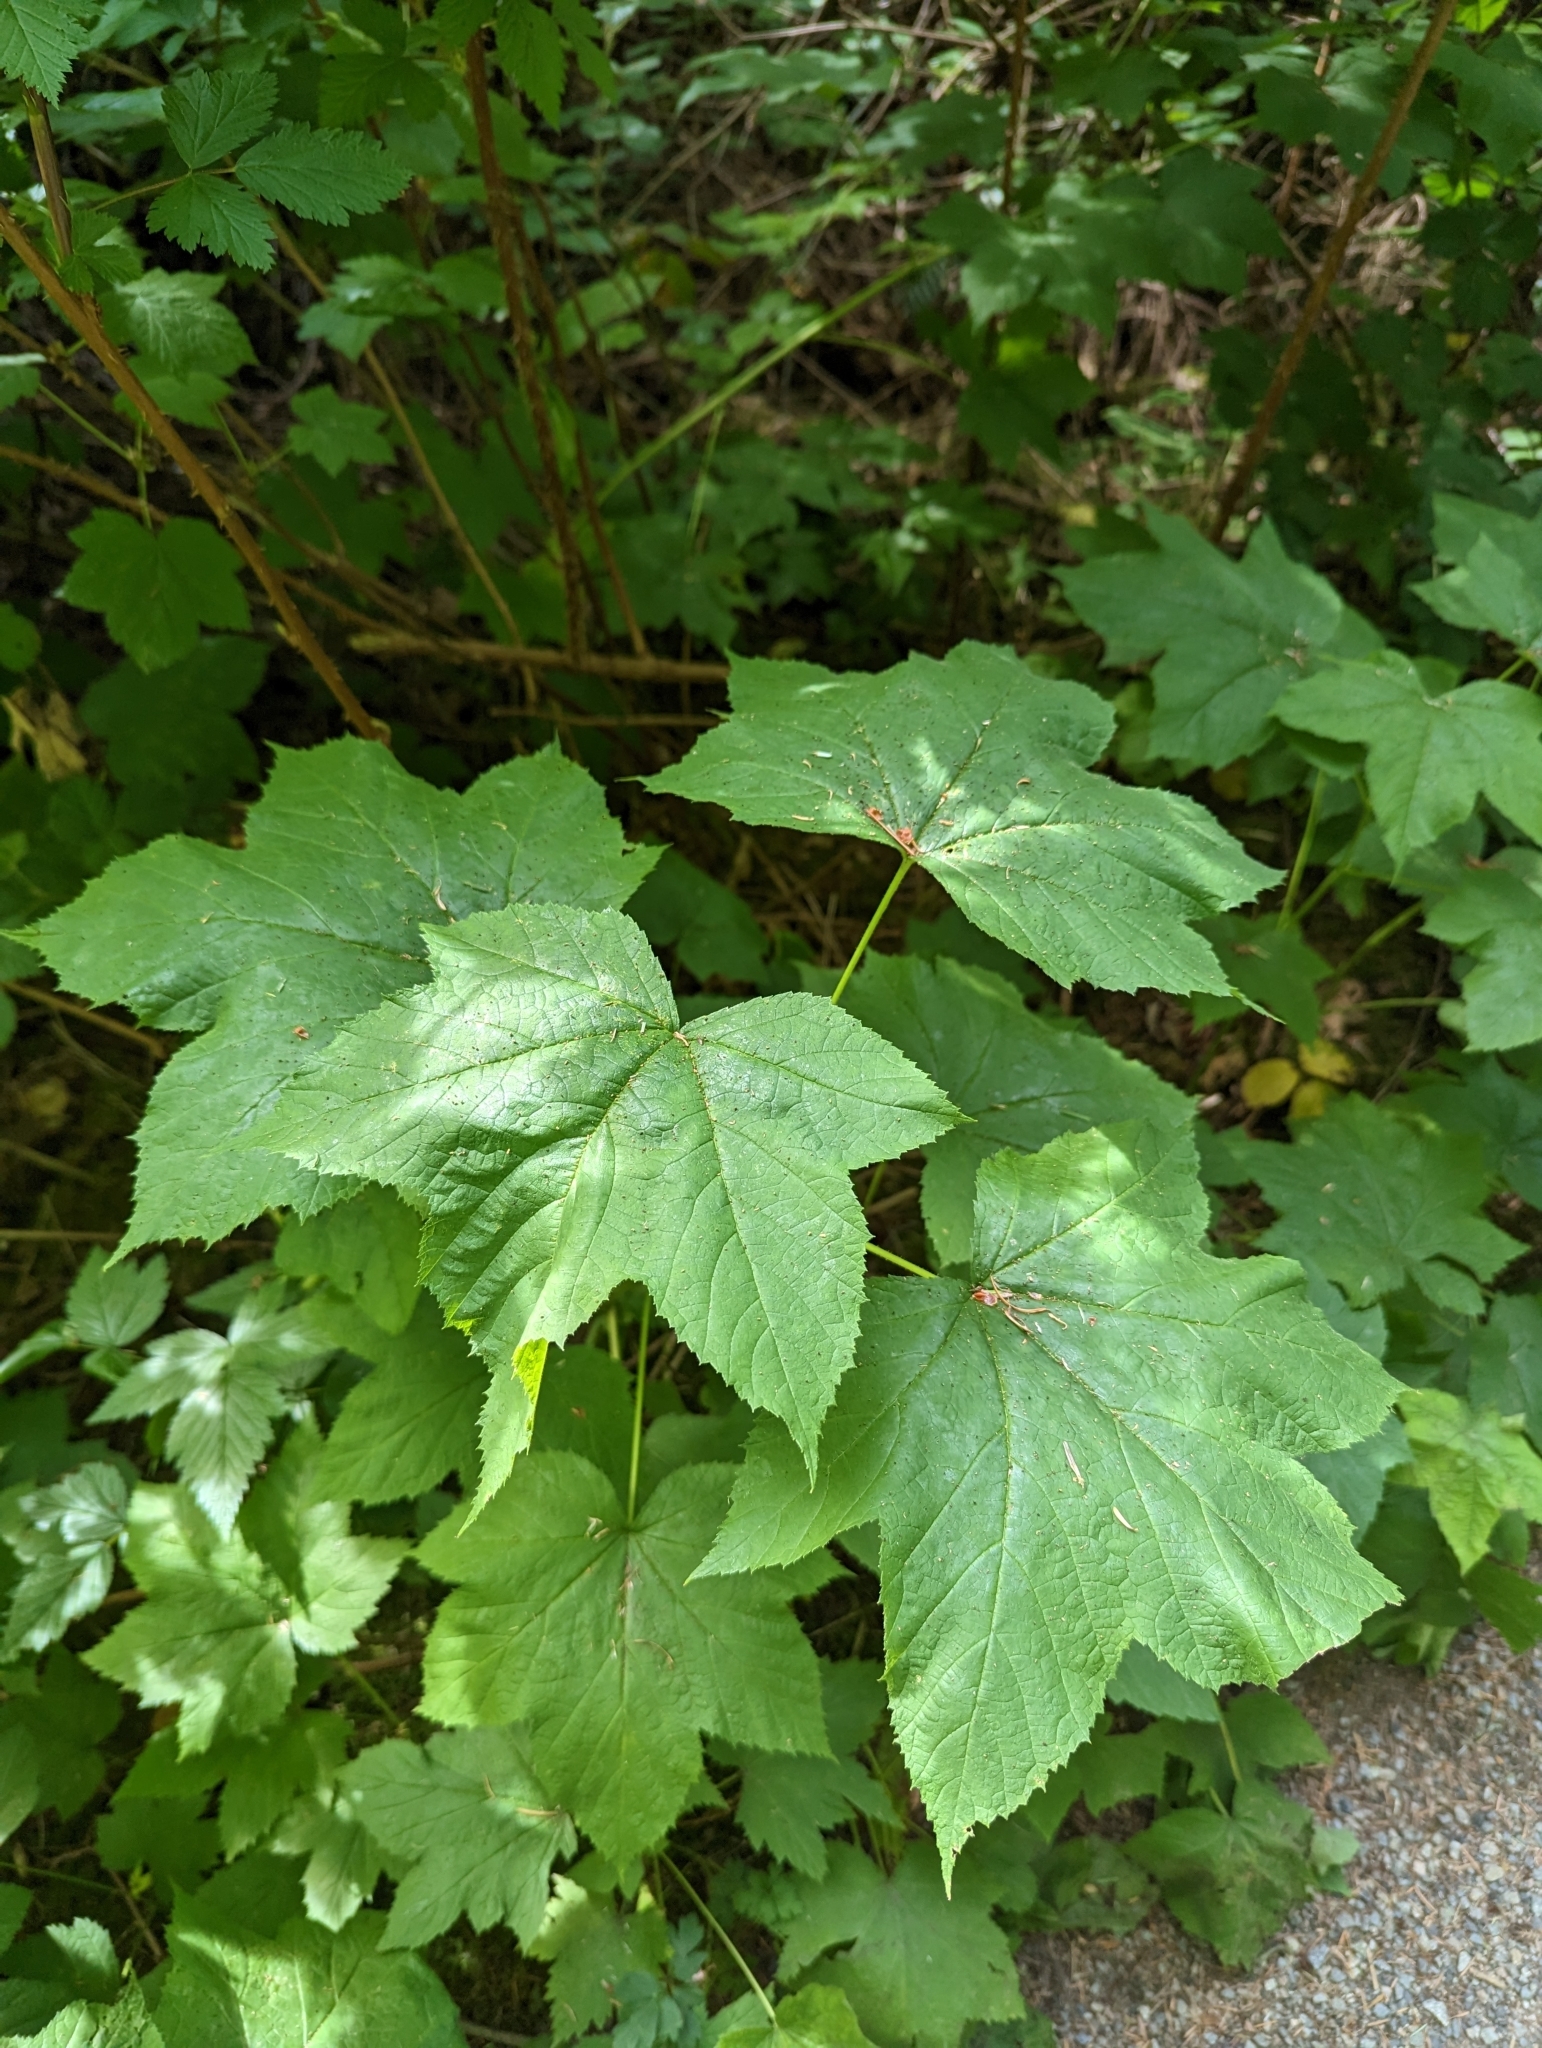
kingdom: Plantae
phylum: Tracheophyta
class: Magnoliopsida
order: Rosales
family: Rosaceae
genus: Rubus
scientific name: Rubus parviflorus
